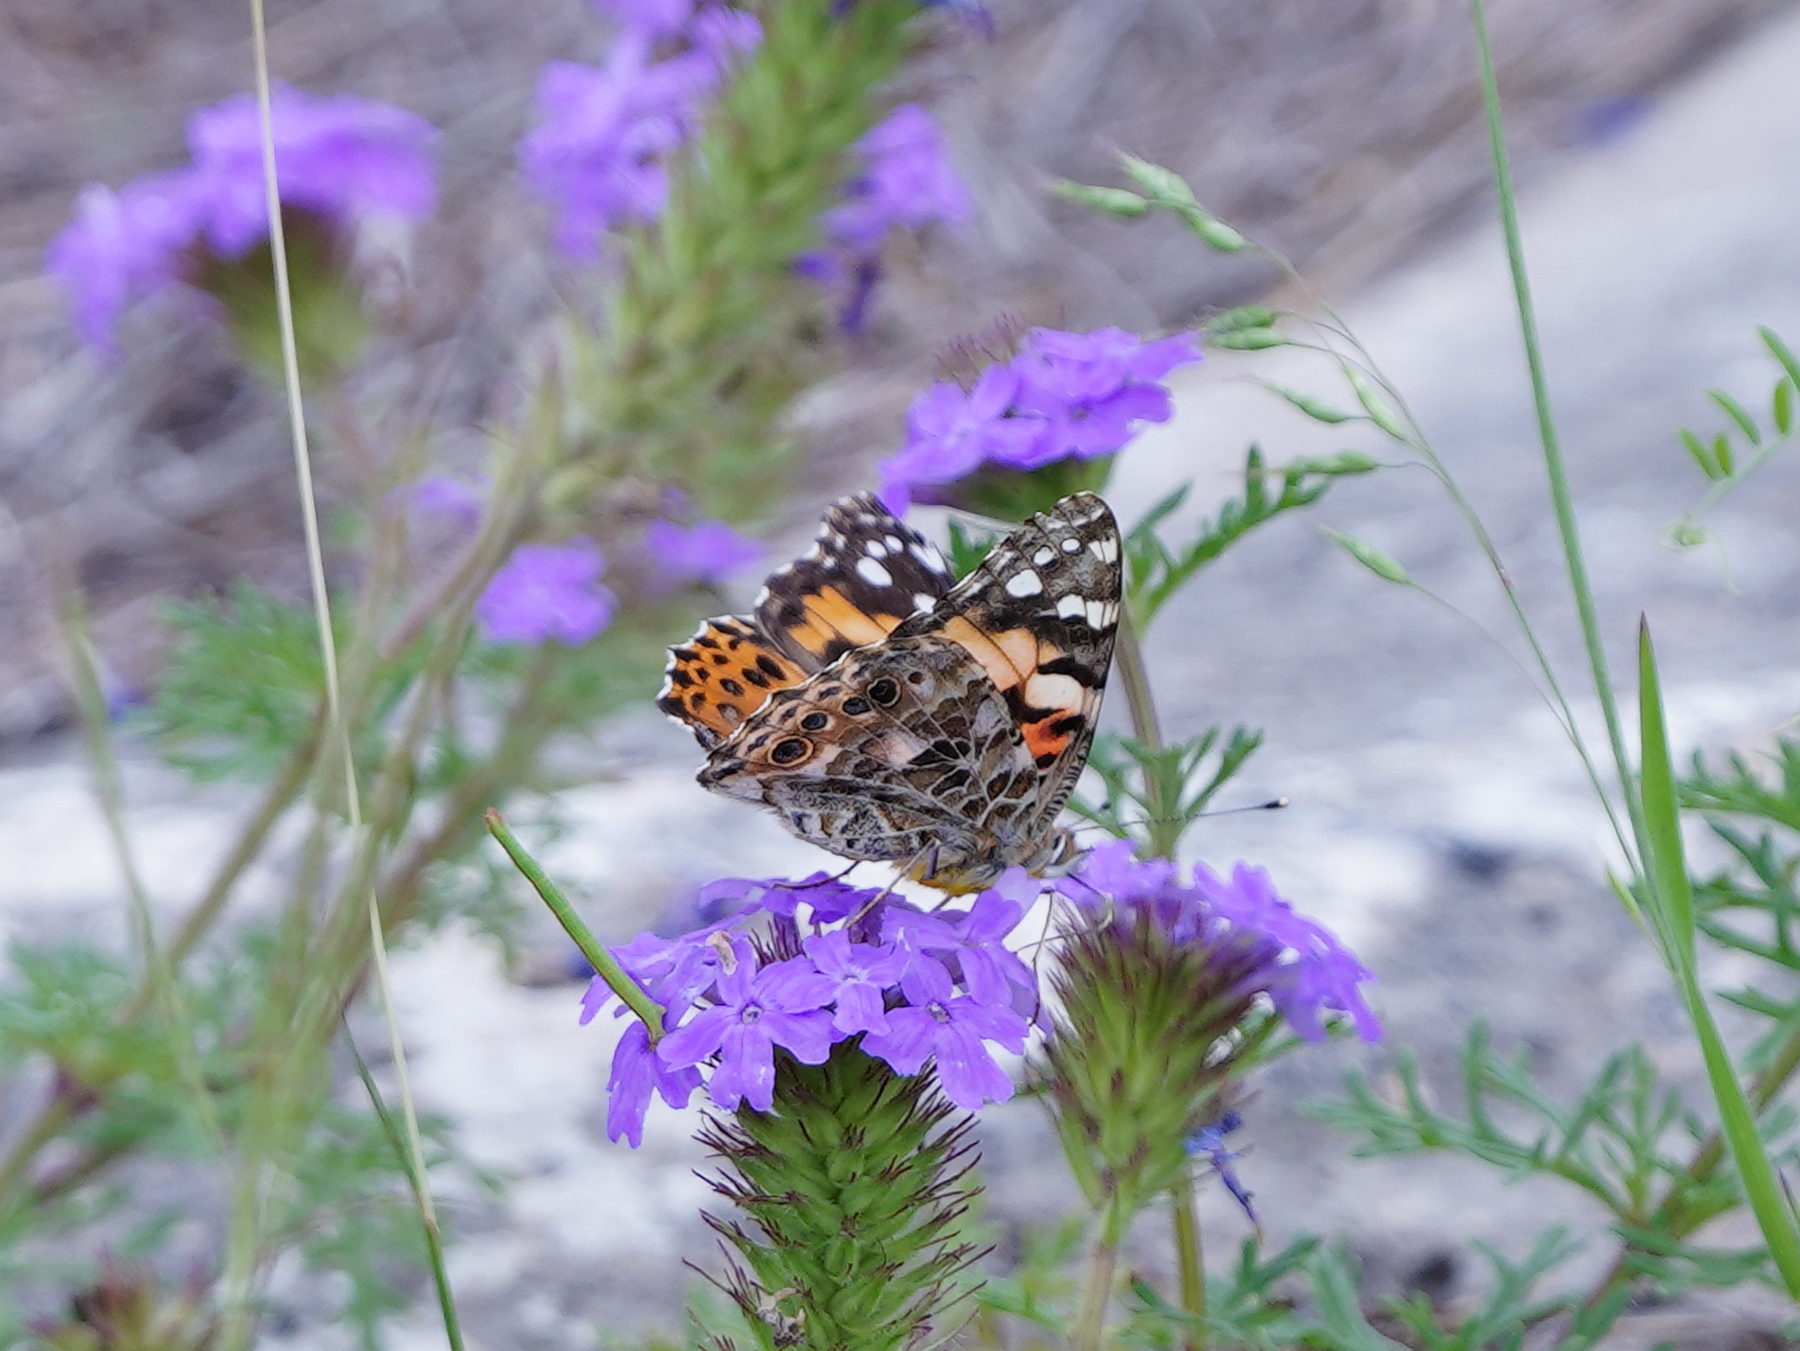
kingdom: Animalia
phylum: Arthropoda
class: Insecta
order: Lepidoptera
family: Nymphalidae
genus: Vanessa
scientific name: Vanessa cardui
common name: Painted lady
